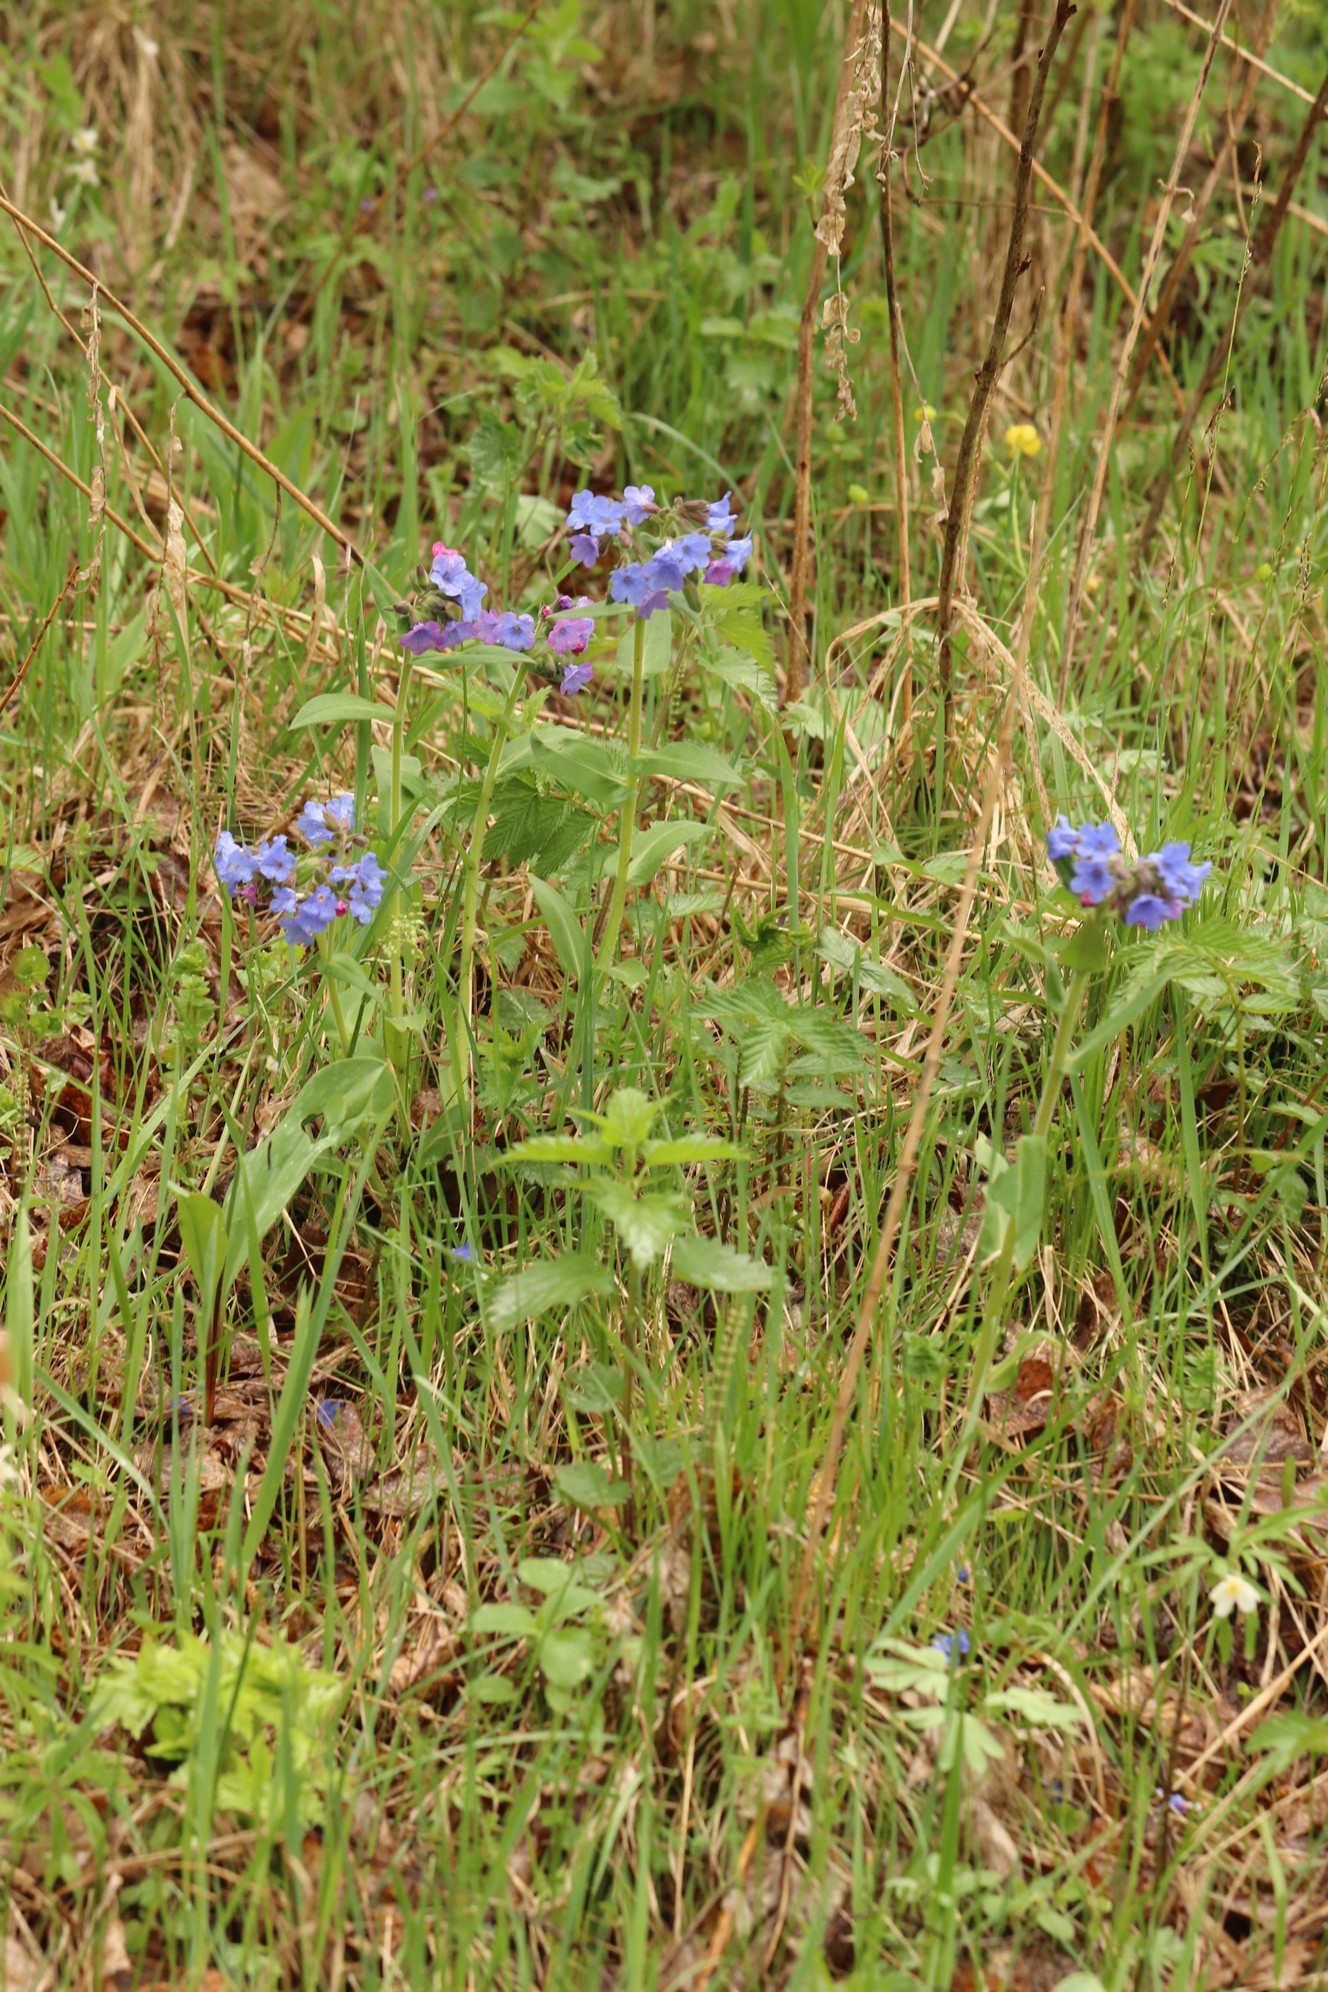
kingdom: Plantae
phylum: Tracheophyta
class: Magnoliopsida
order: Boraginales
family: Boraginaceae
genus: Pulmonaria
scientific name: Pulmonaria mollis
